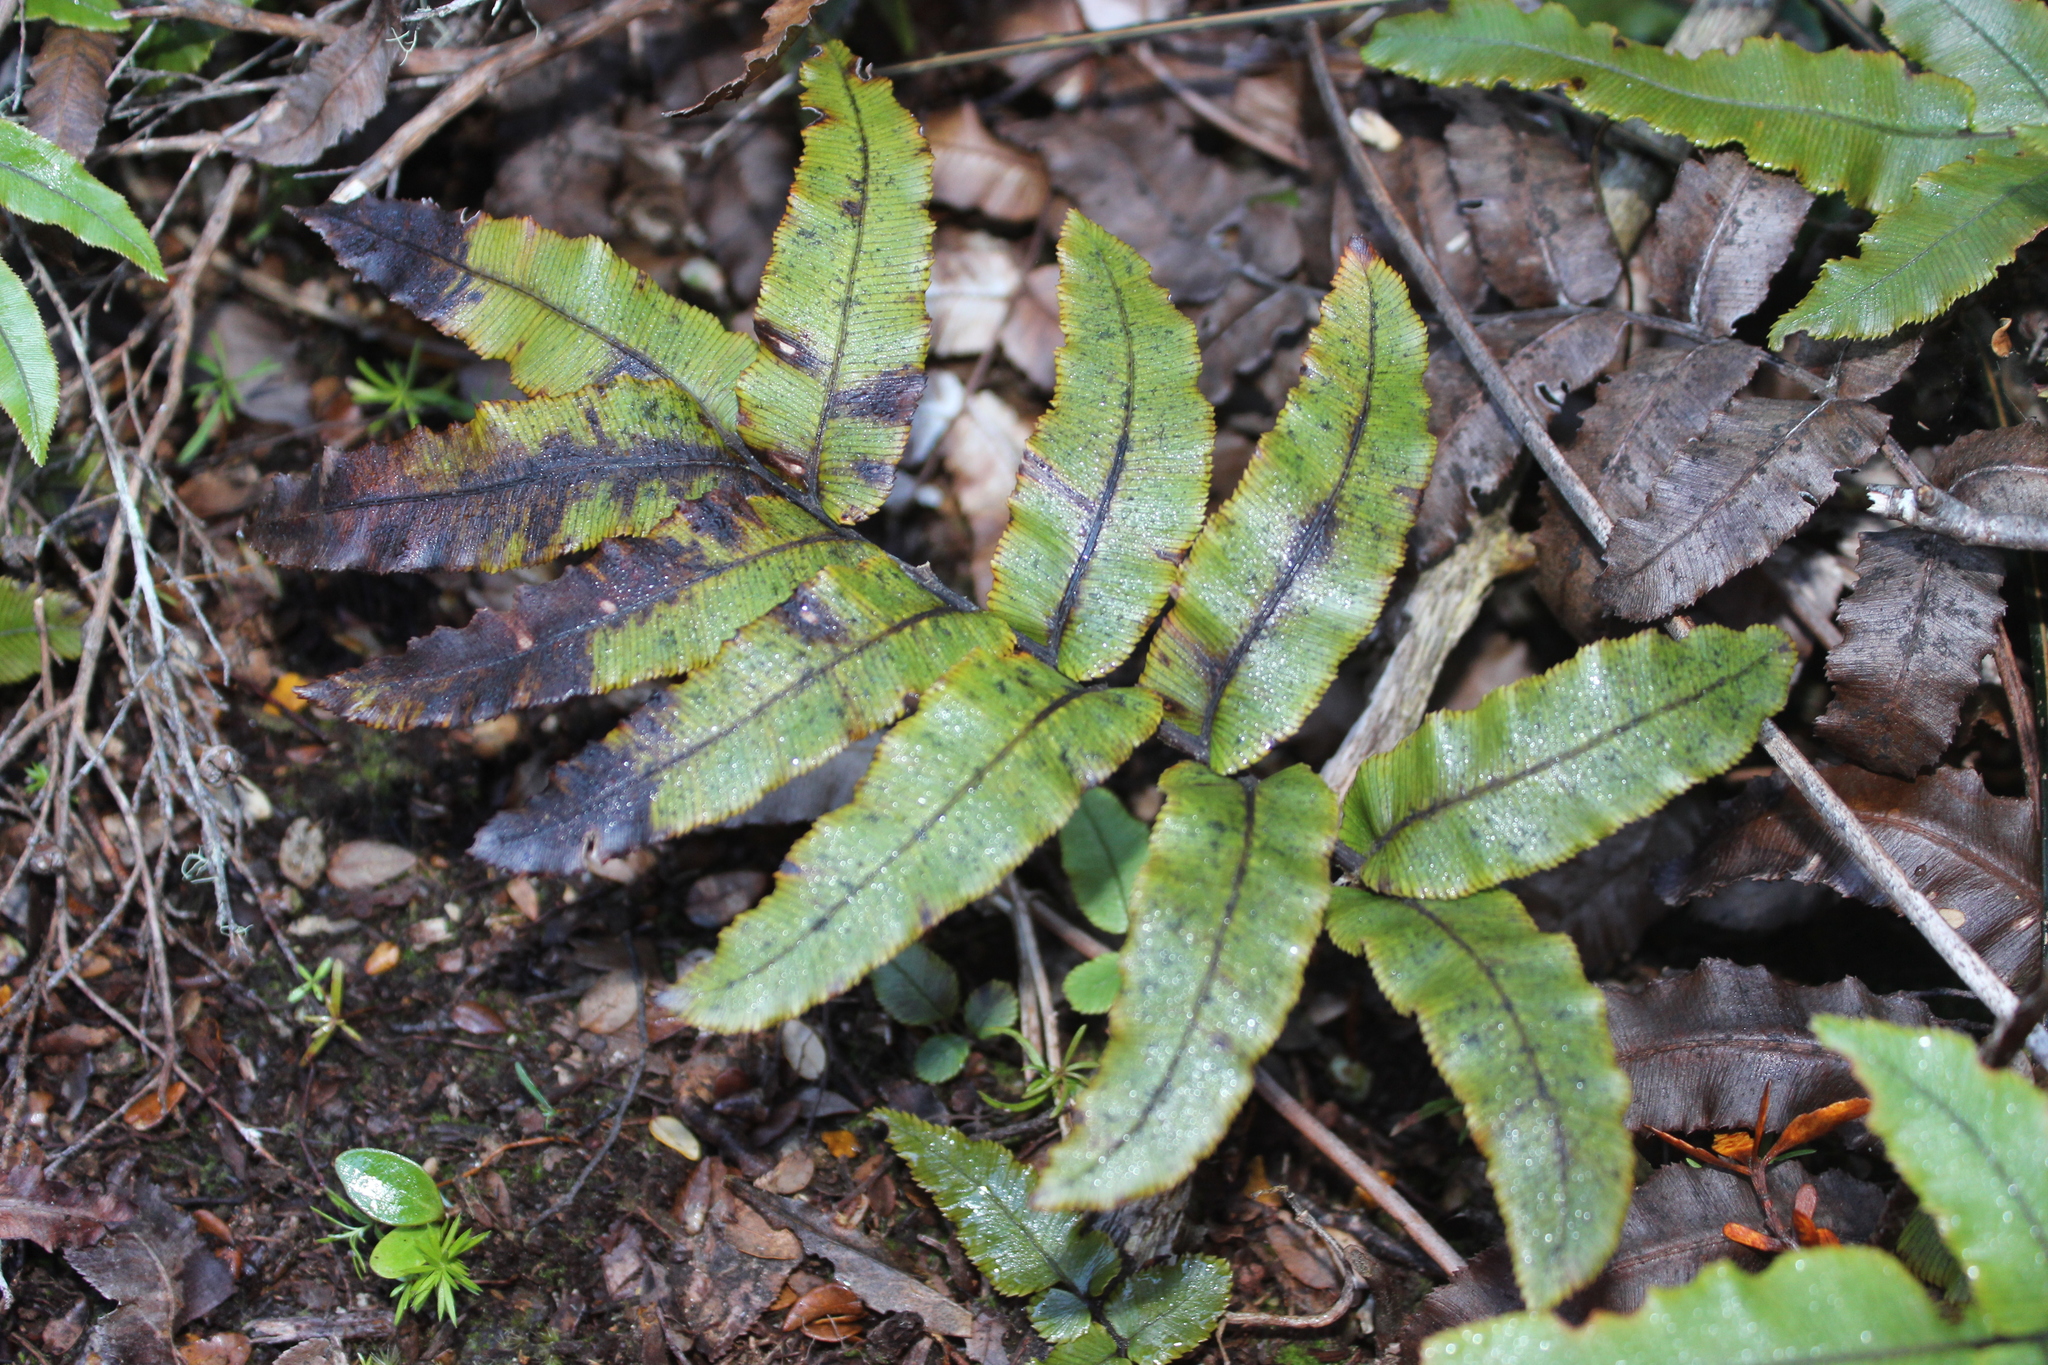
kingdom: Plantae
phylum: Tracheophyta
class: Polypodiopsida
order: Polypodiales
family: Blechnaceae
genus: Parablechnum
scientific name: Parablechnum procerum
